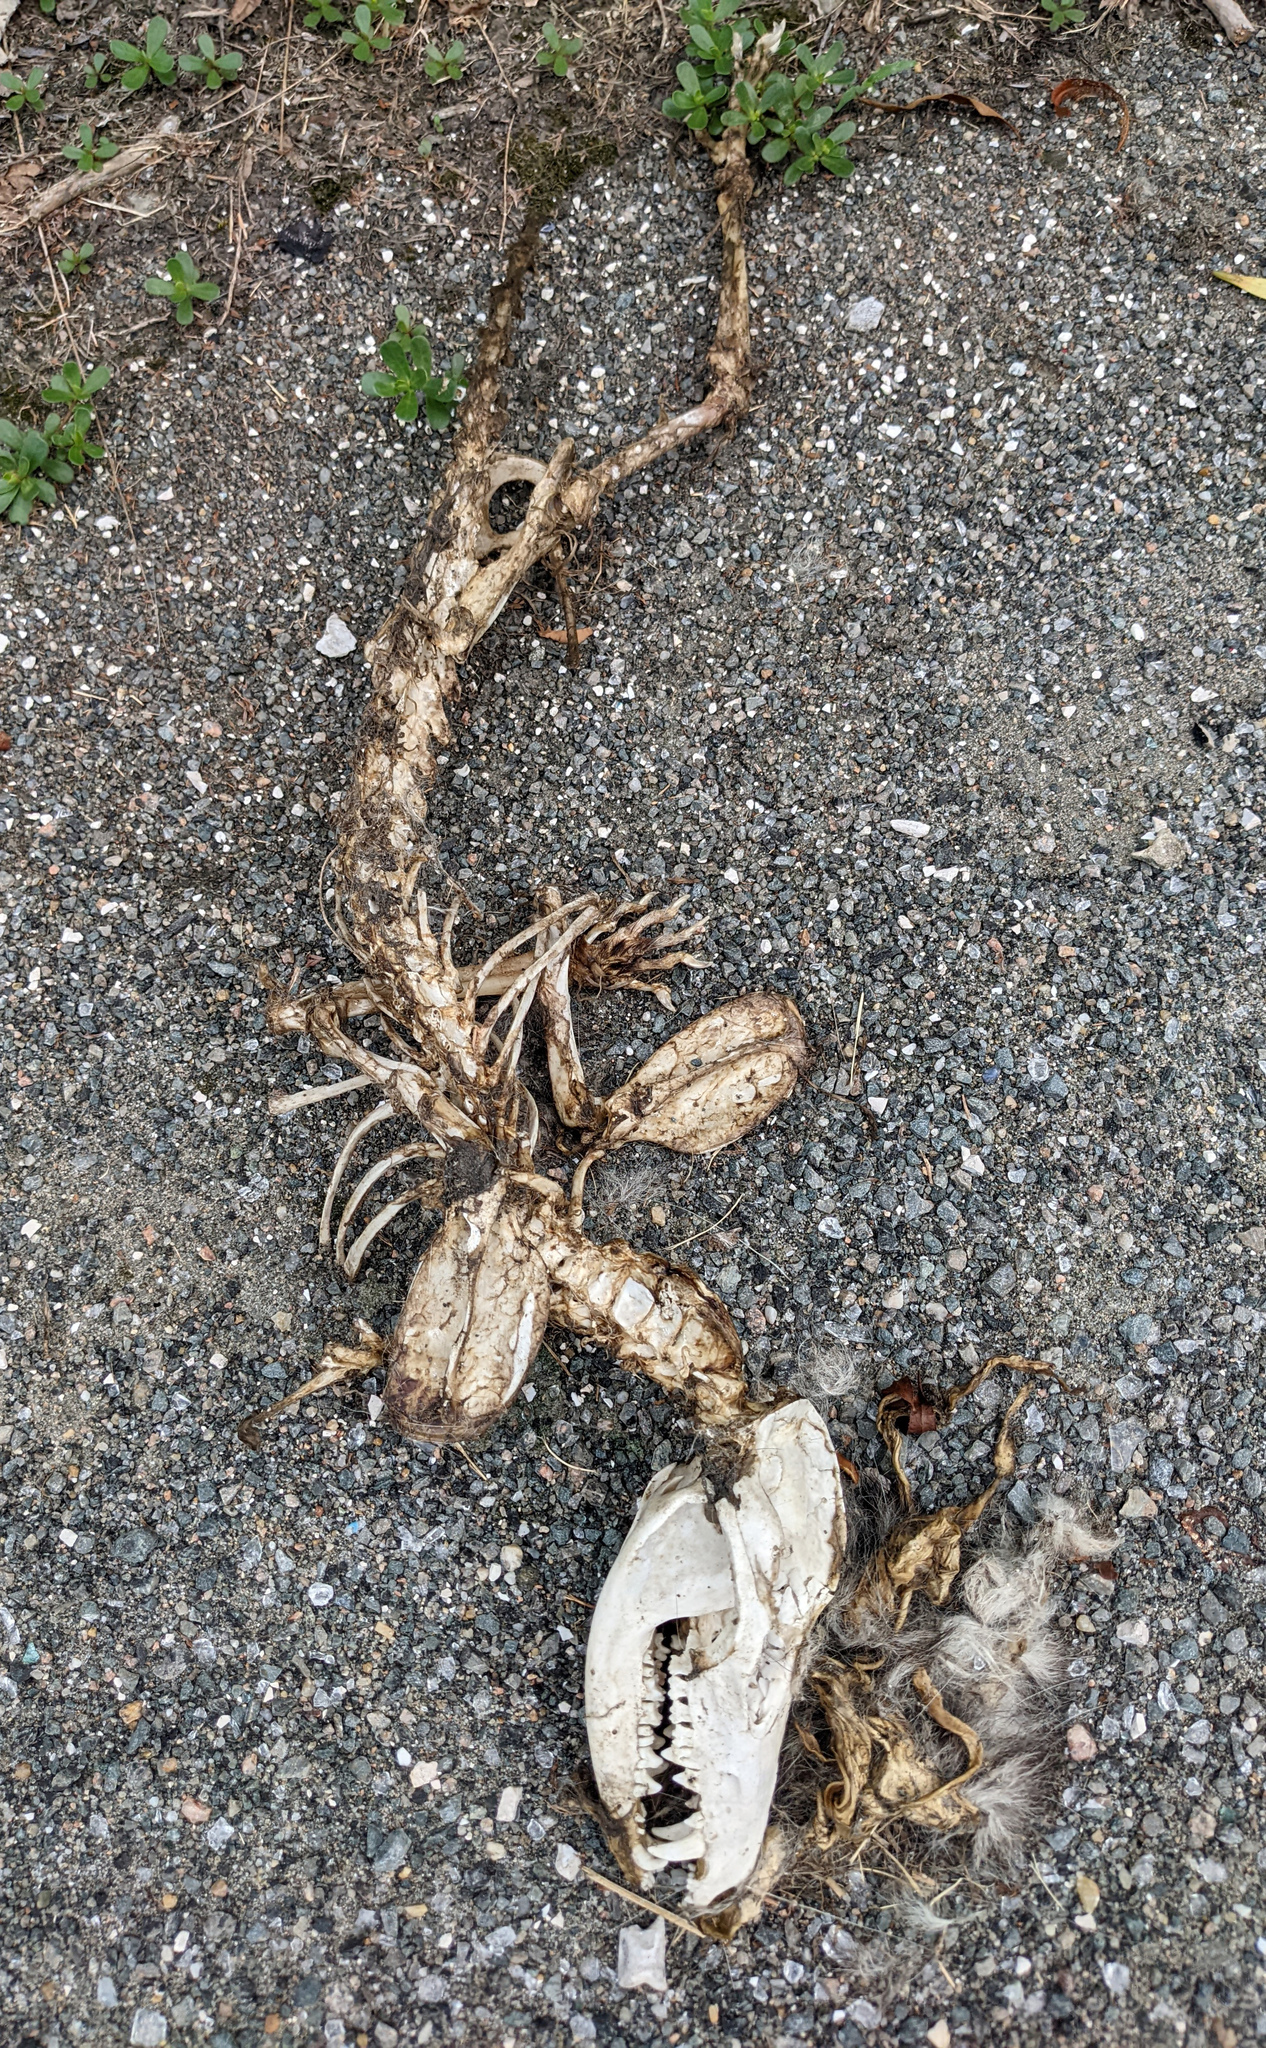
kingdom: Animalia
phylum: Chordata
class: Mammalia
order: Didelphimorphia
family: Didelphidae
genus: Didelphis
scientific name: Didelphis virginiana
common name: Virginia opossum
